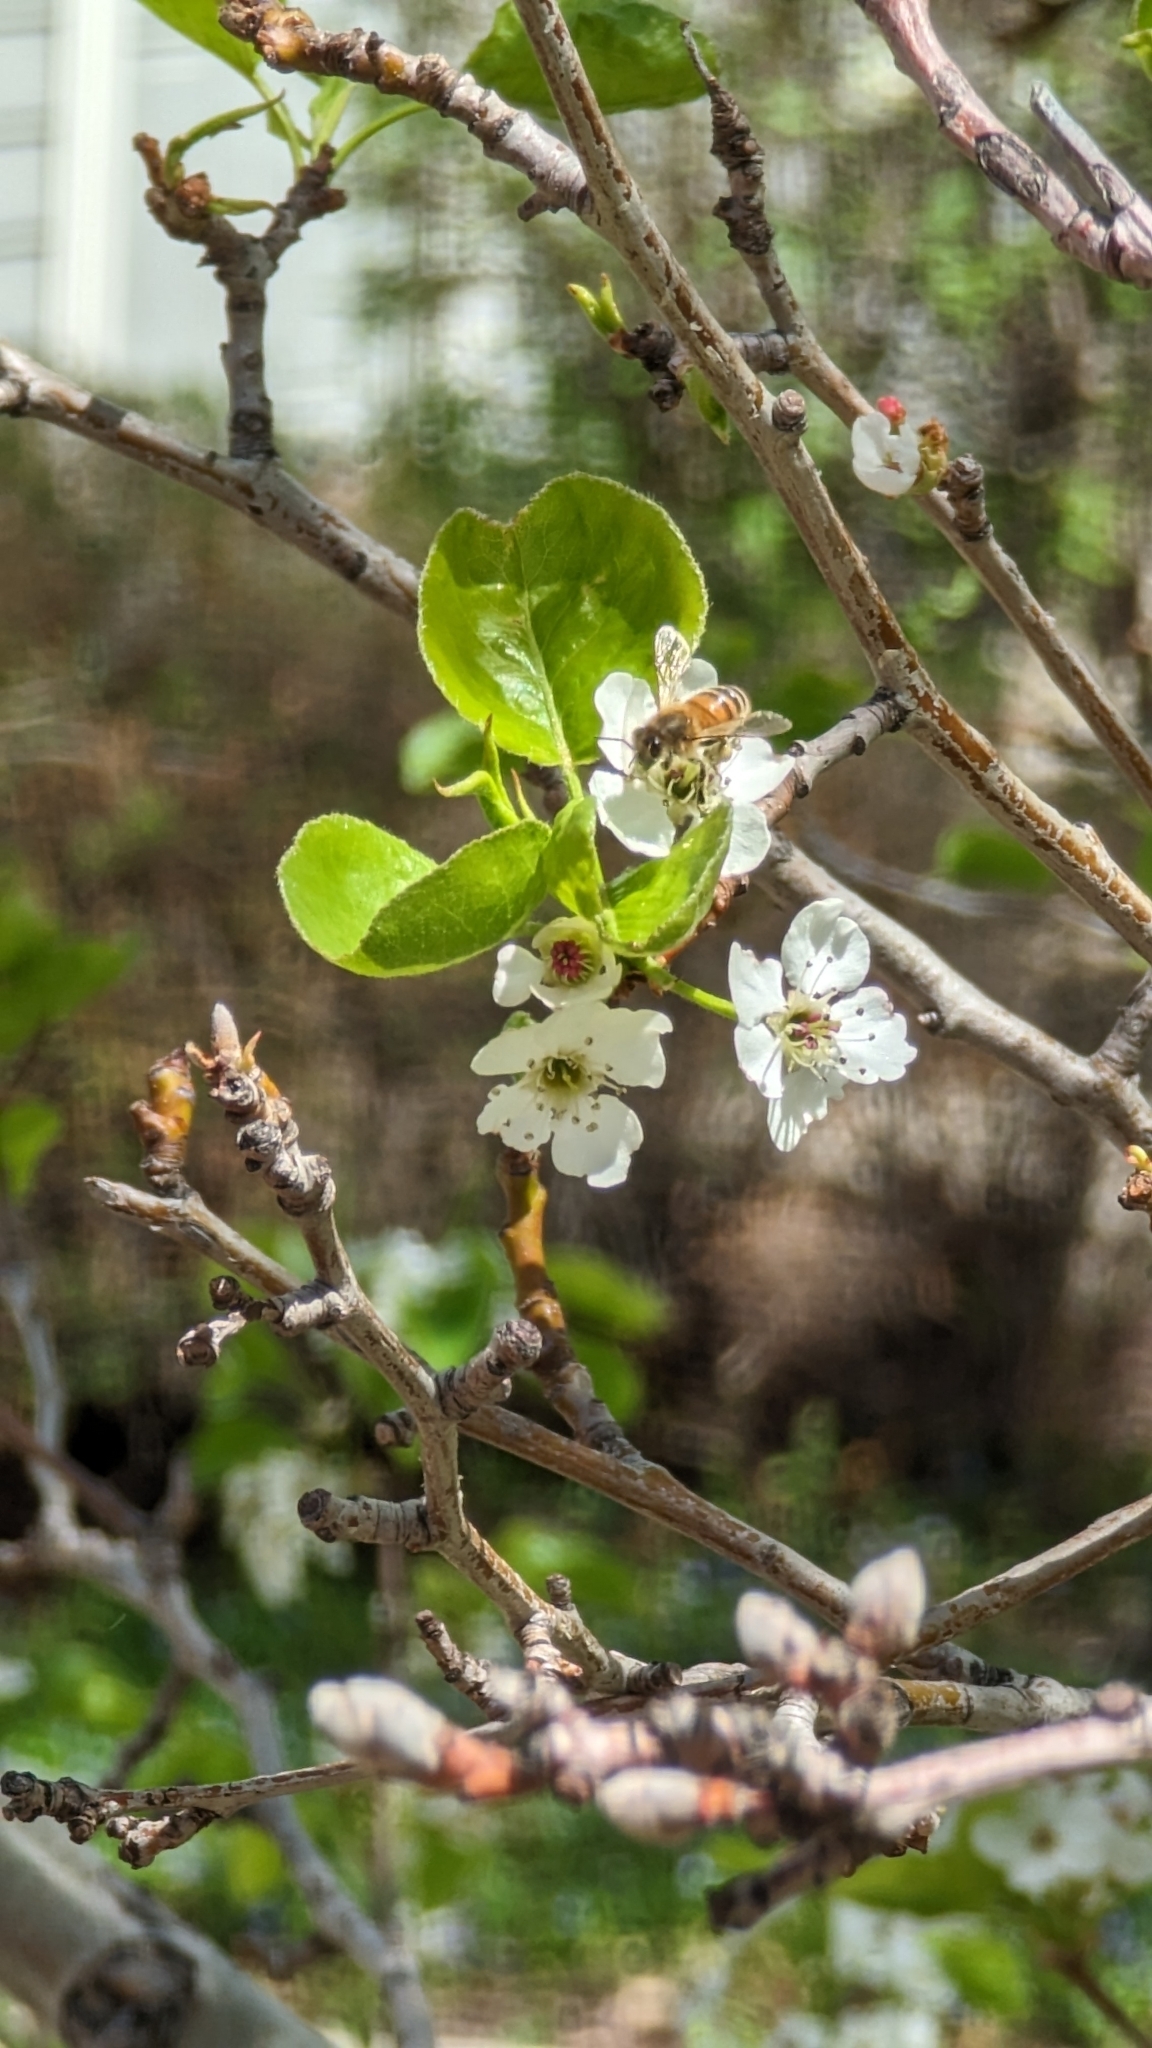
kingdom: Animalia
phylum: Arthropoda
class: Insecta
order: Hymenoptera
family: Apidae
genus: Apis
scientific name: Apis mellifera
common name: Honey bee
